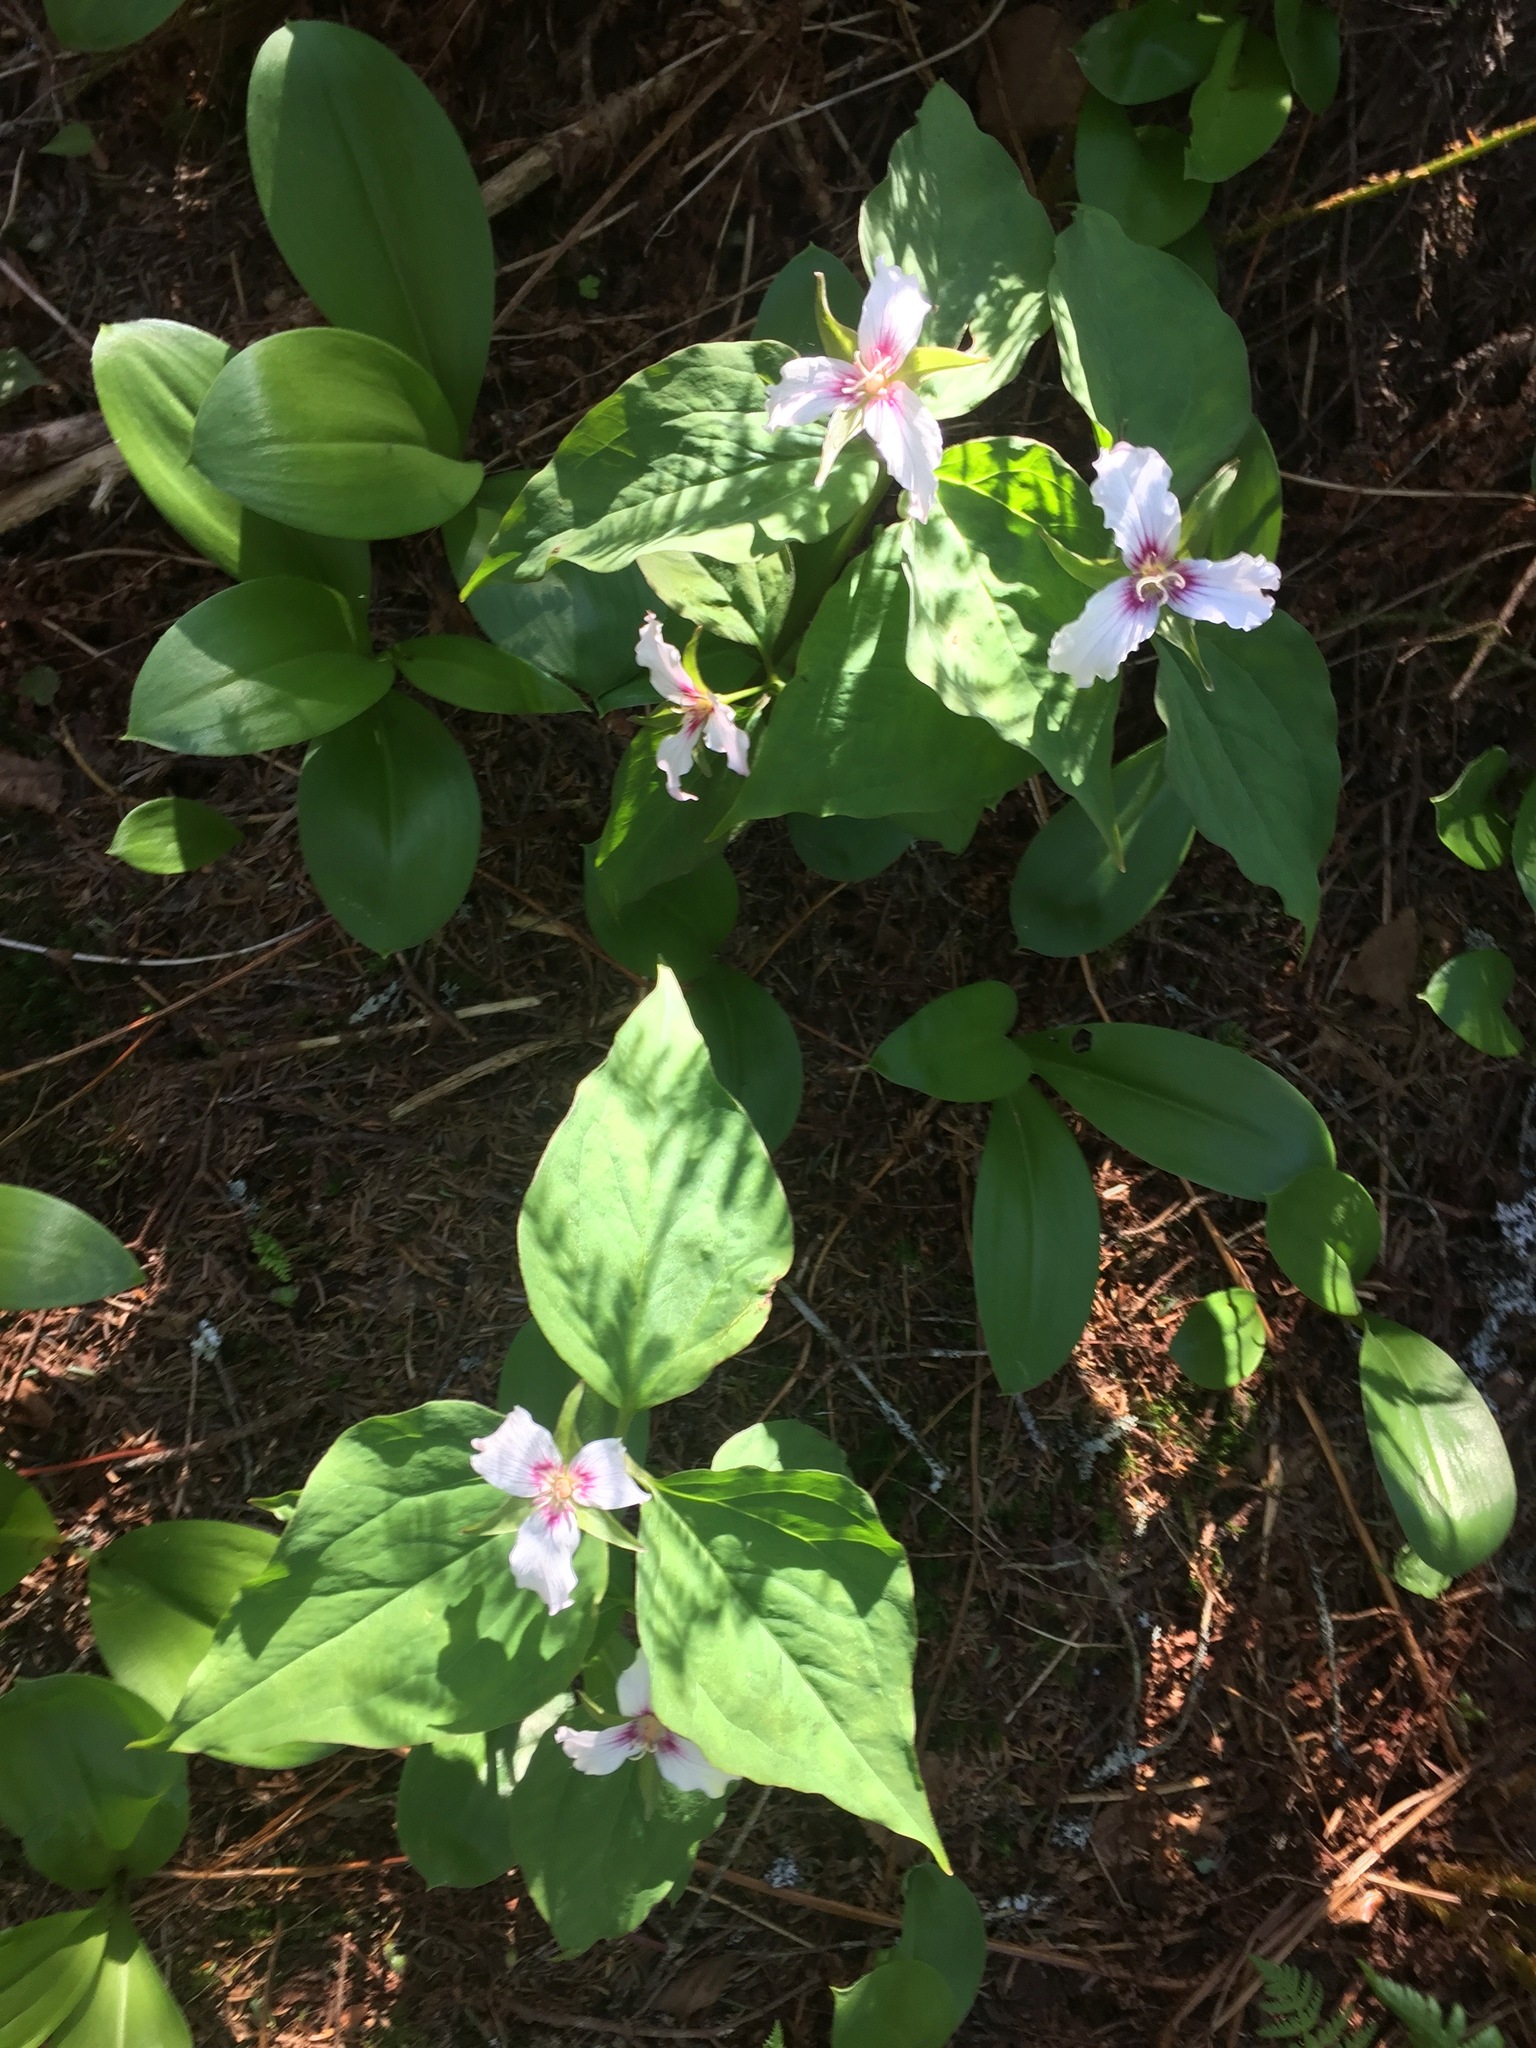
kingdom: Plantae
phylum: Tracheophyta
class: Liliopsida
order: Liliales
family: Melanthiaceae
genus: Trillium
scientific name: Trillium undulatum
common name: Paint trillium
